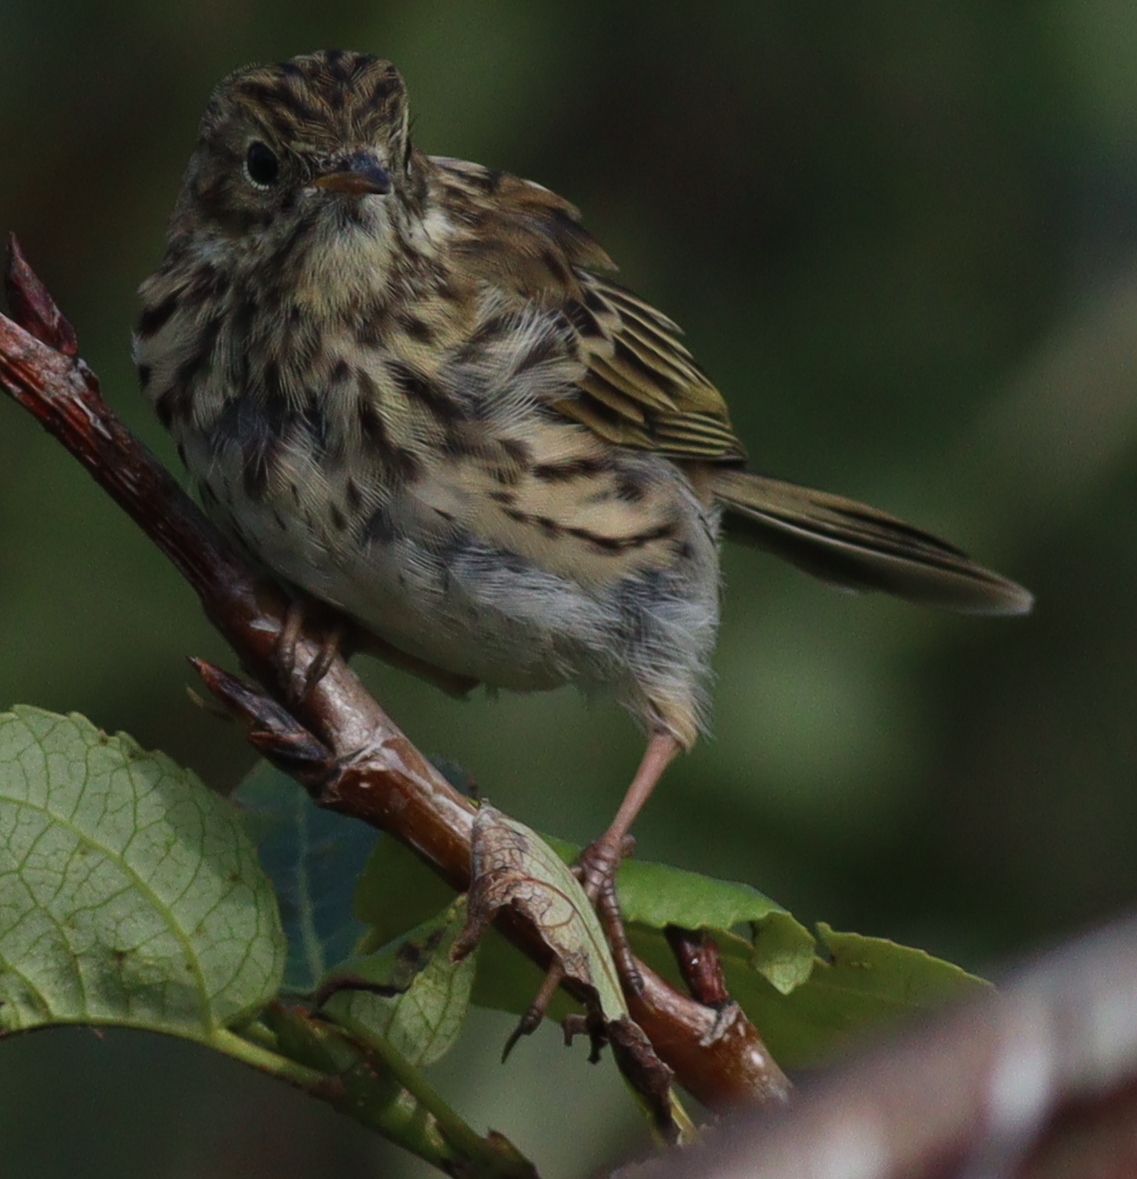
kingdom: Animalia
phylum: Chordata
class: Aves
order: Passeriformes
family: Motacillidae
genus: Anthus
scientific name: Anthus pratensis
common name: Meadow pipit
